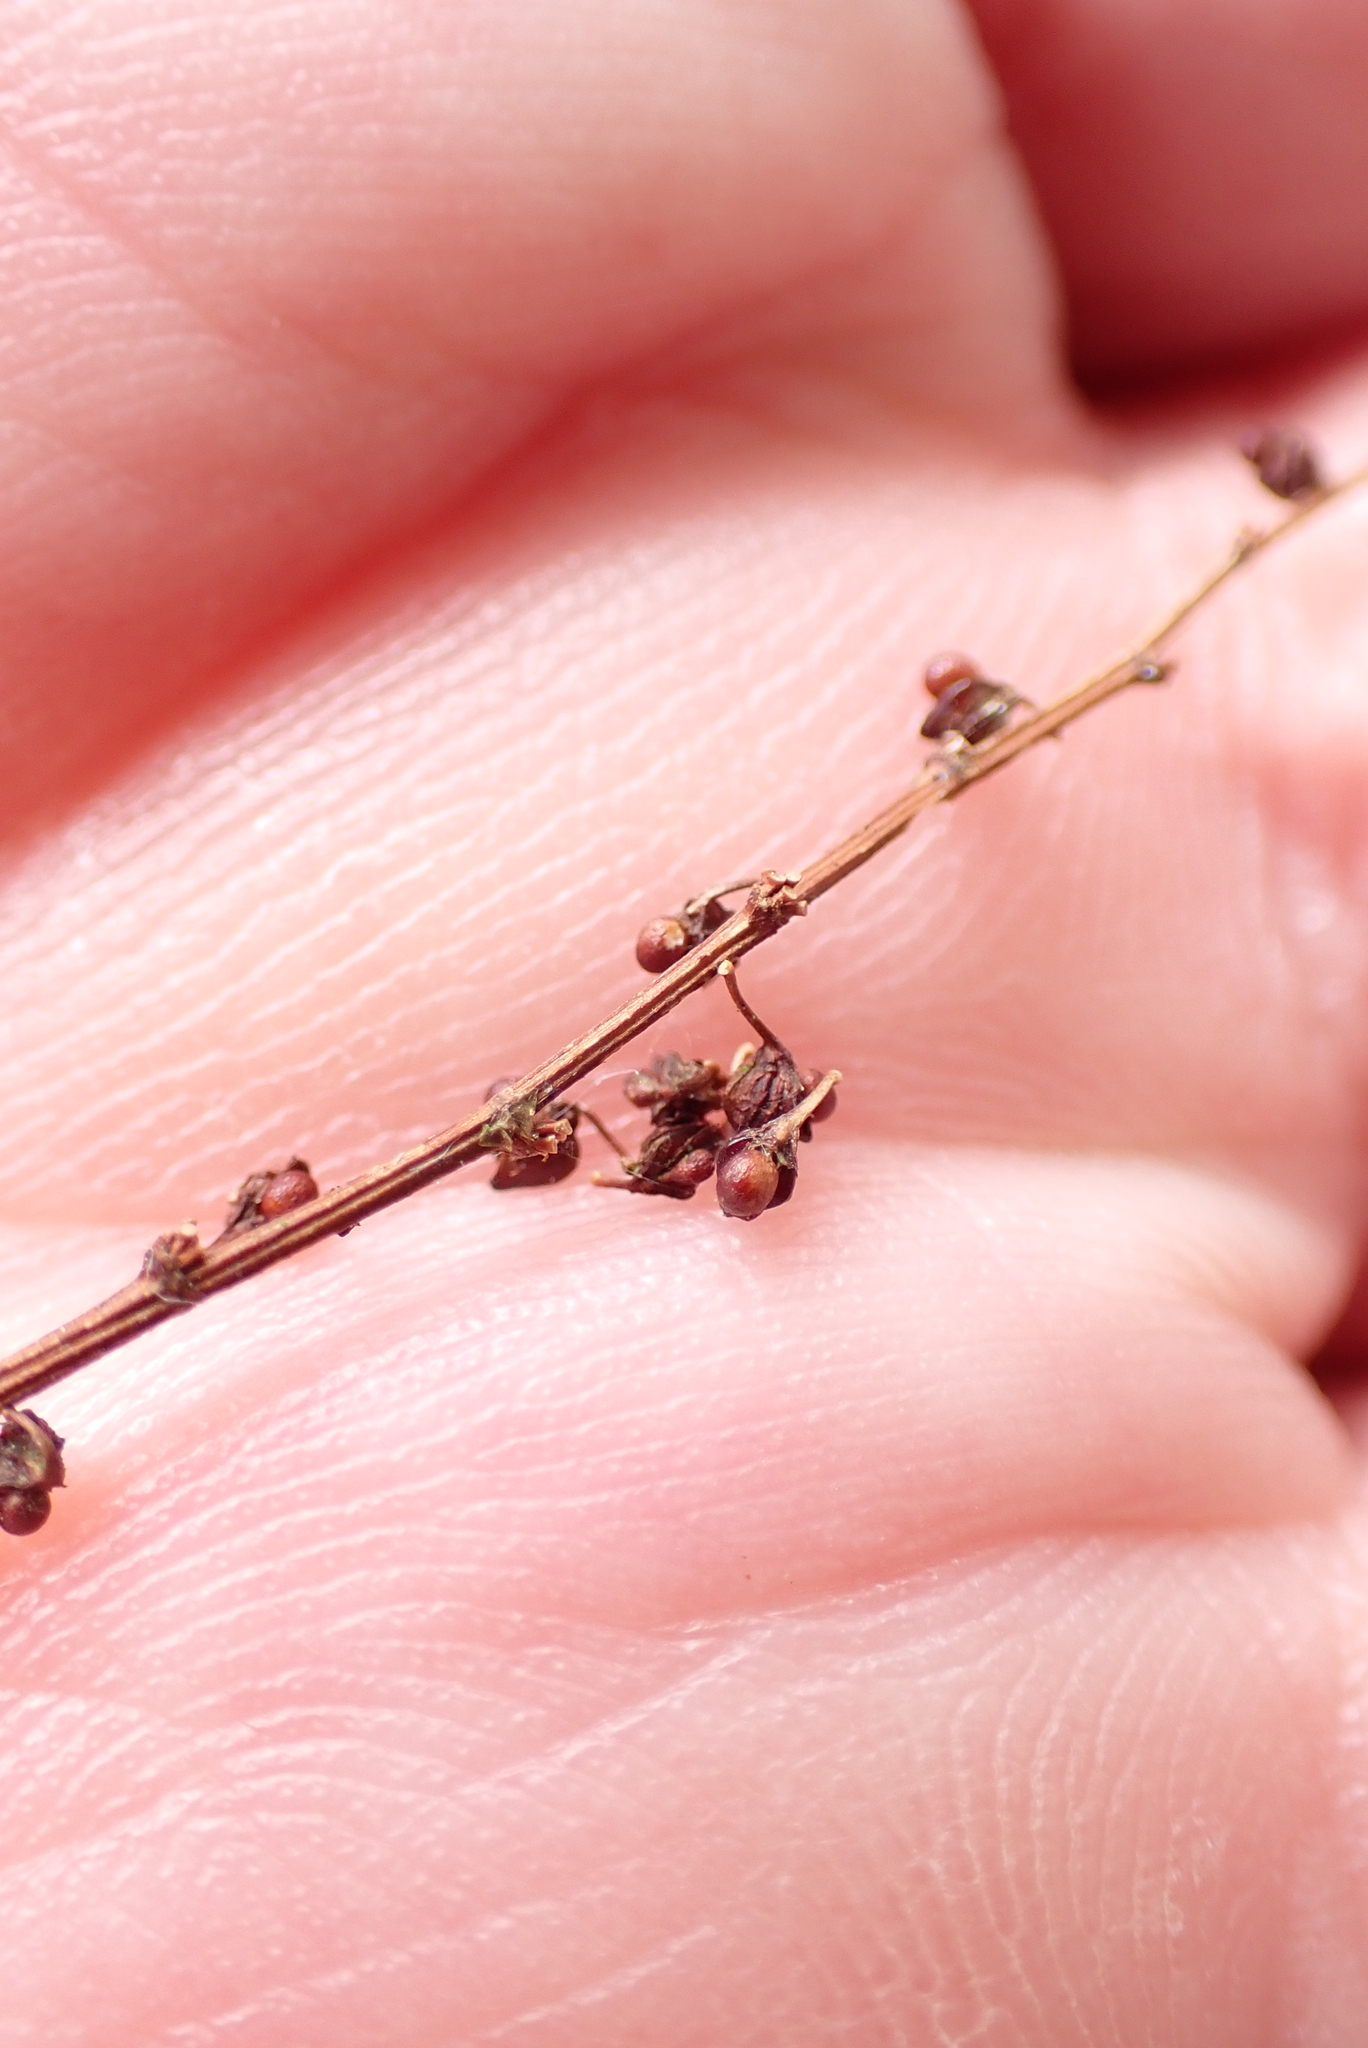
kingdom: Plantae
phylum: Tracheophyta
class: Magnoliopsida
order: Caryophyllales
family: Polygonaceae
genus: Rumex
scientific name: Rumex sanguineus
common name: Wood dock
